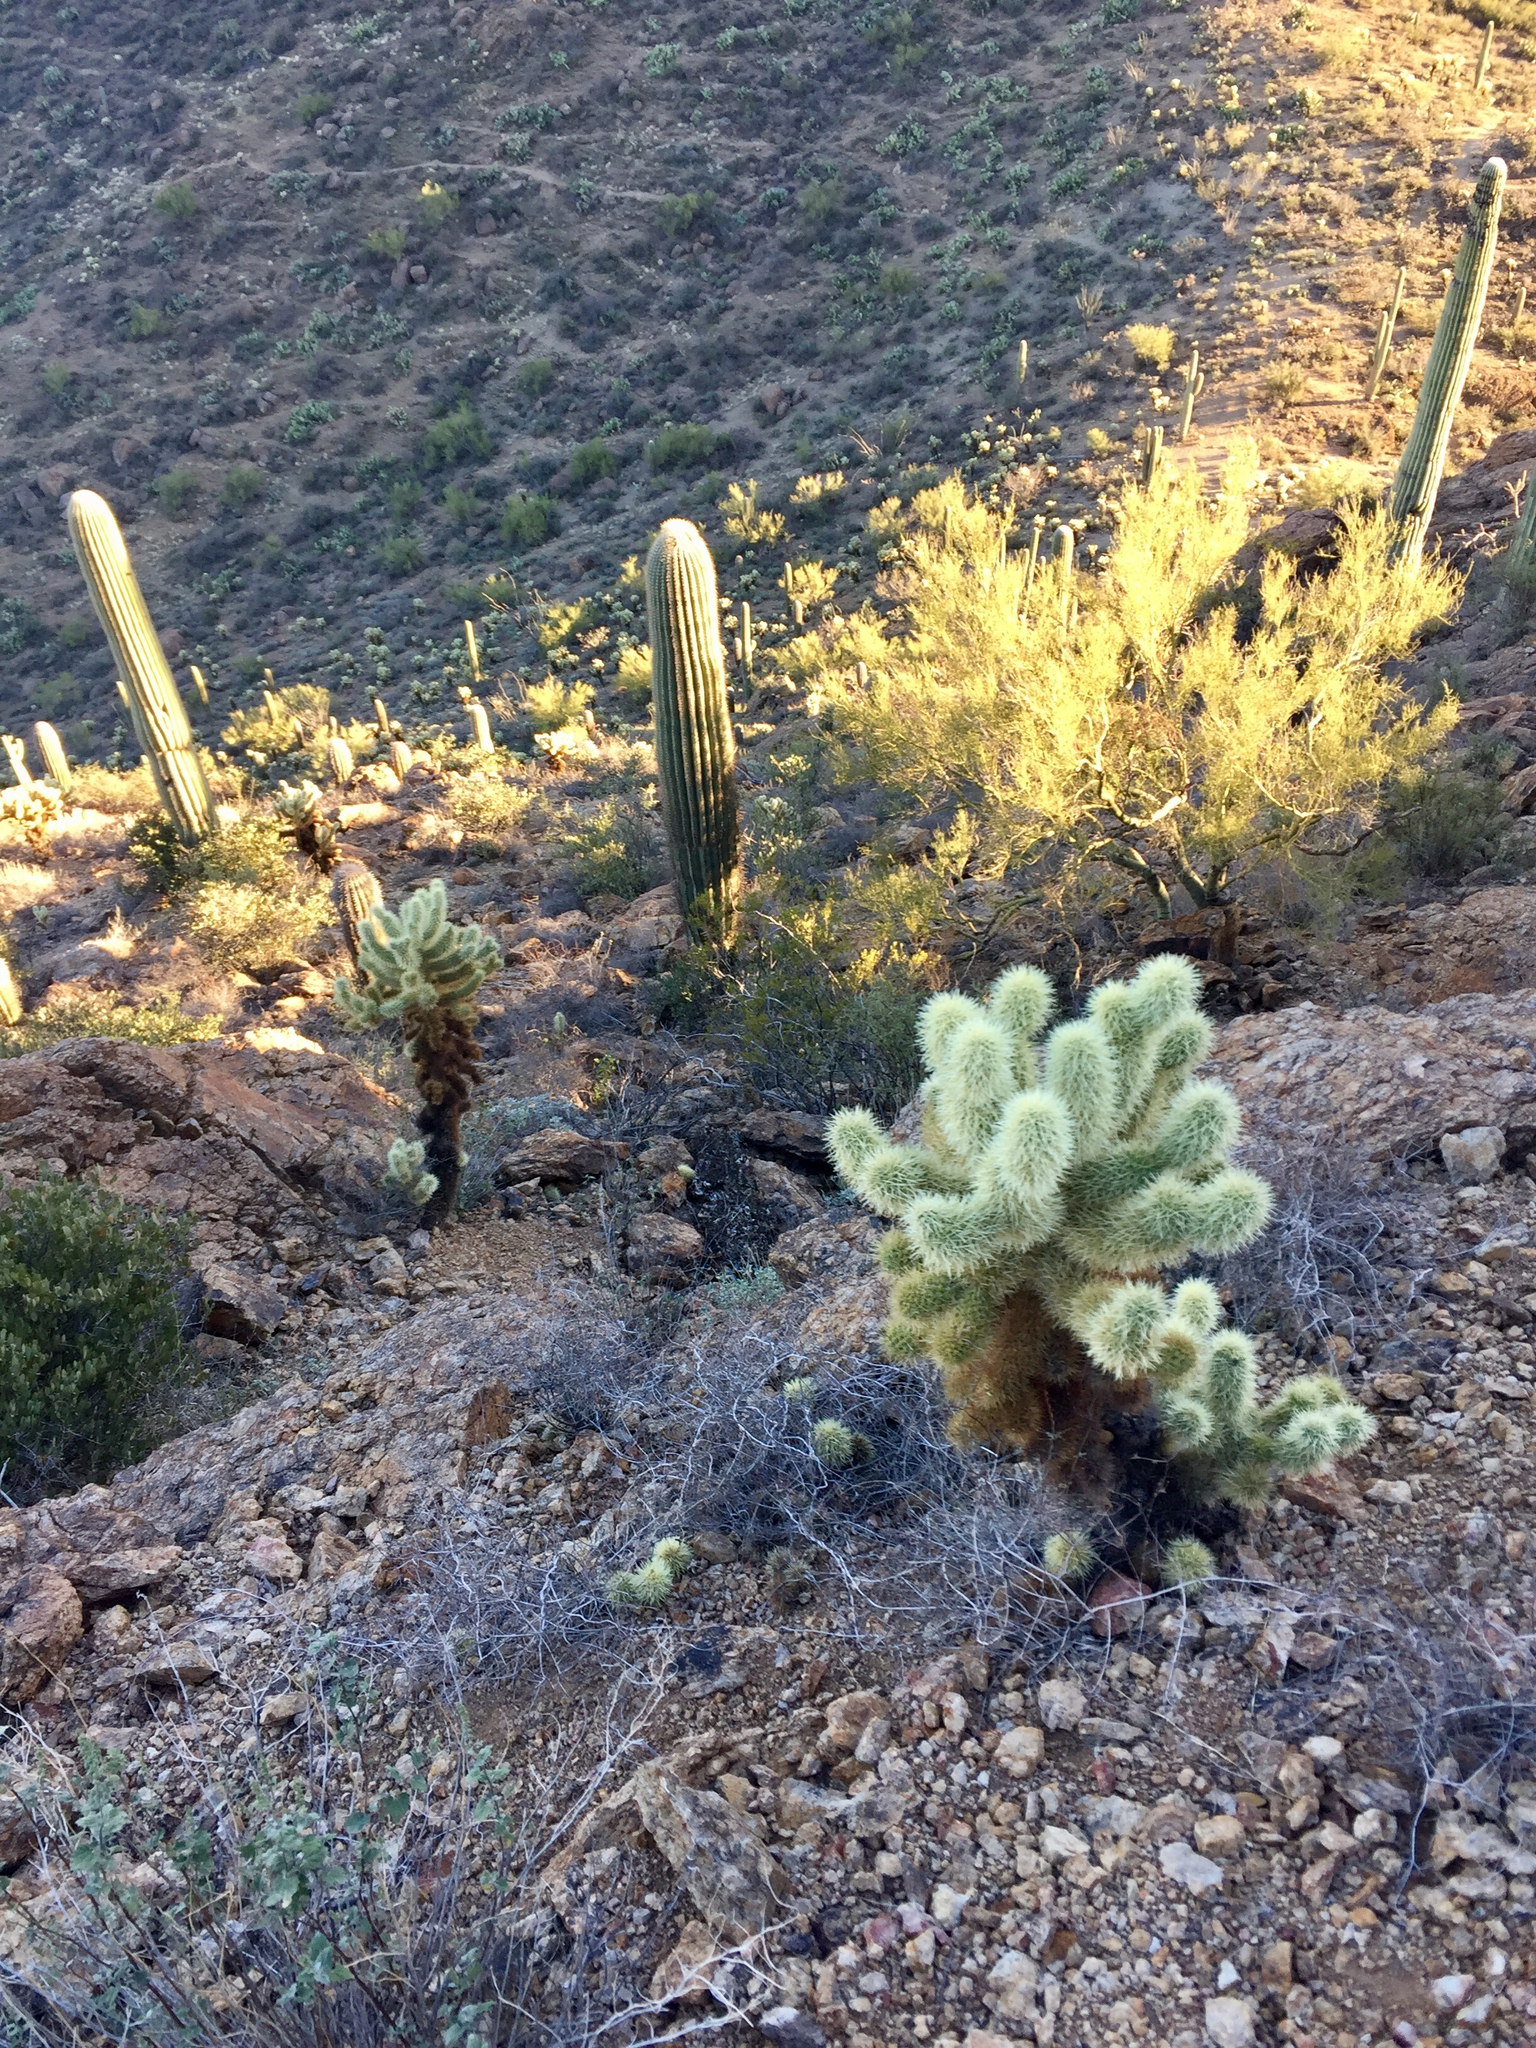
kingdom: Plantae
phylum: Tracheophyta
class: Magnoliopsida
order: Caryophyllales
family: Cactaceae
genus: Cylindropuntia
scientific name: Cylindropuntia fosbergii
